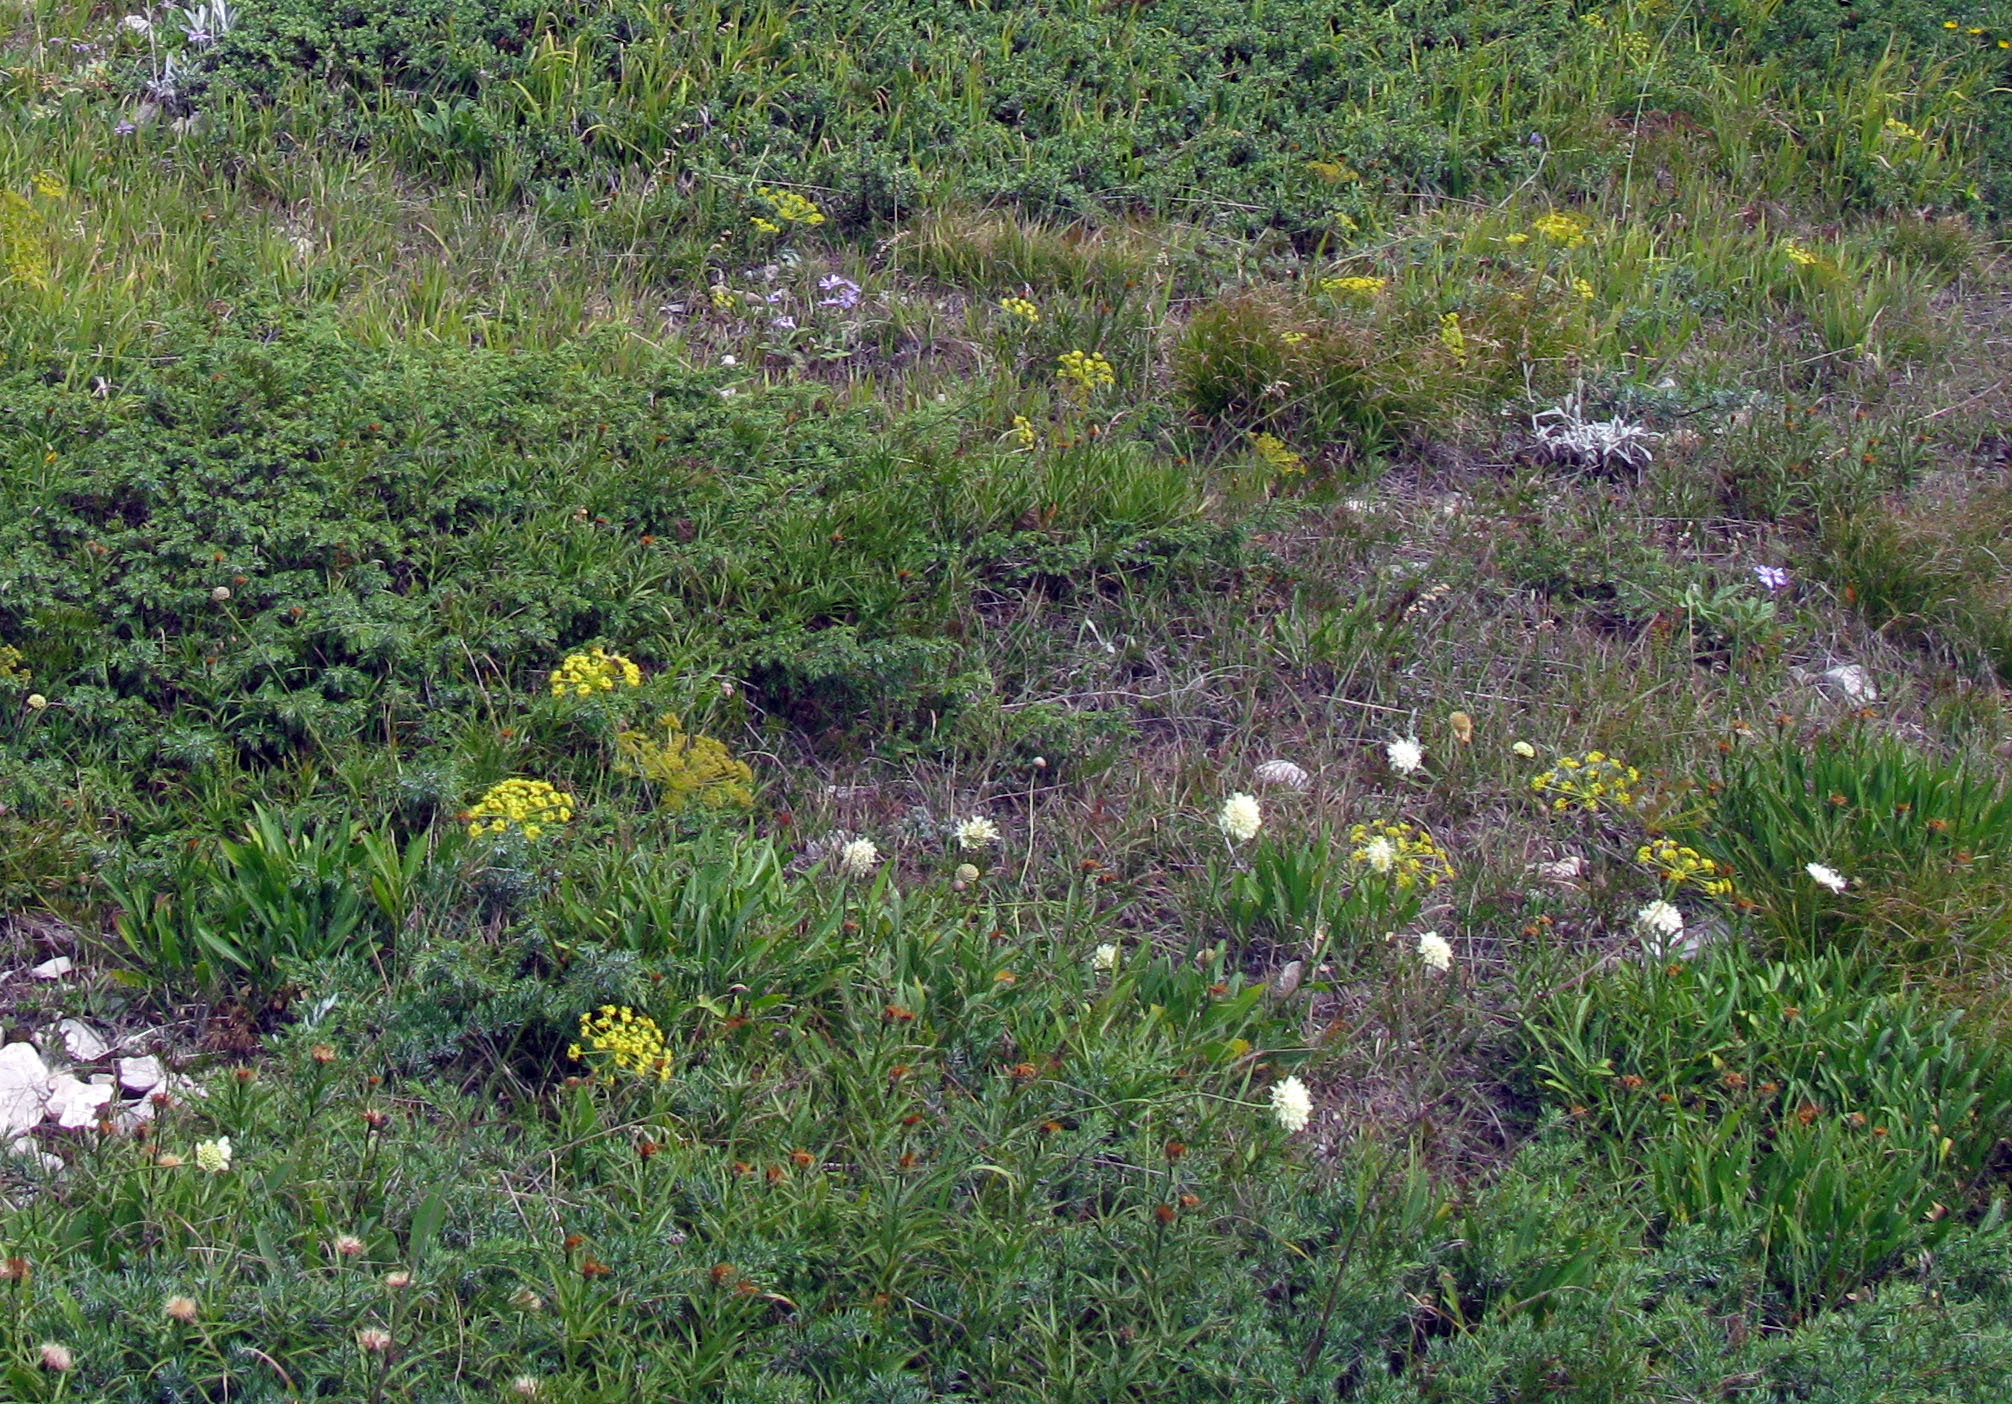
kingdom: Plantae
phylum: Tracheophyta
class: Magnoliopsida
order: Dipsacales
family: Caprifoliaceae
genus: Cephalaria
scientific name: Cephalaria uralensis
